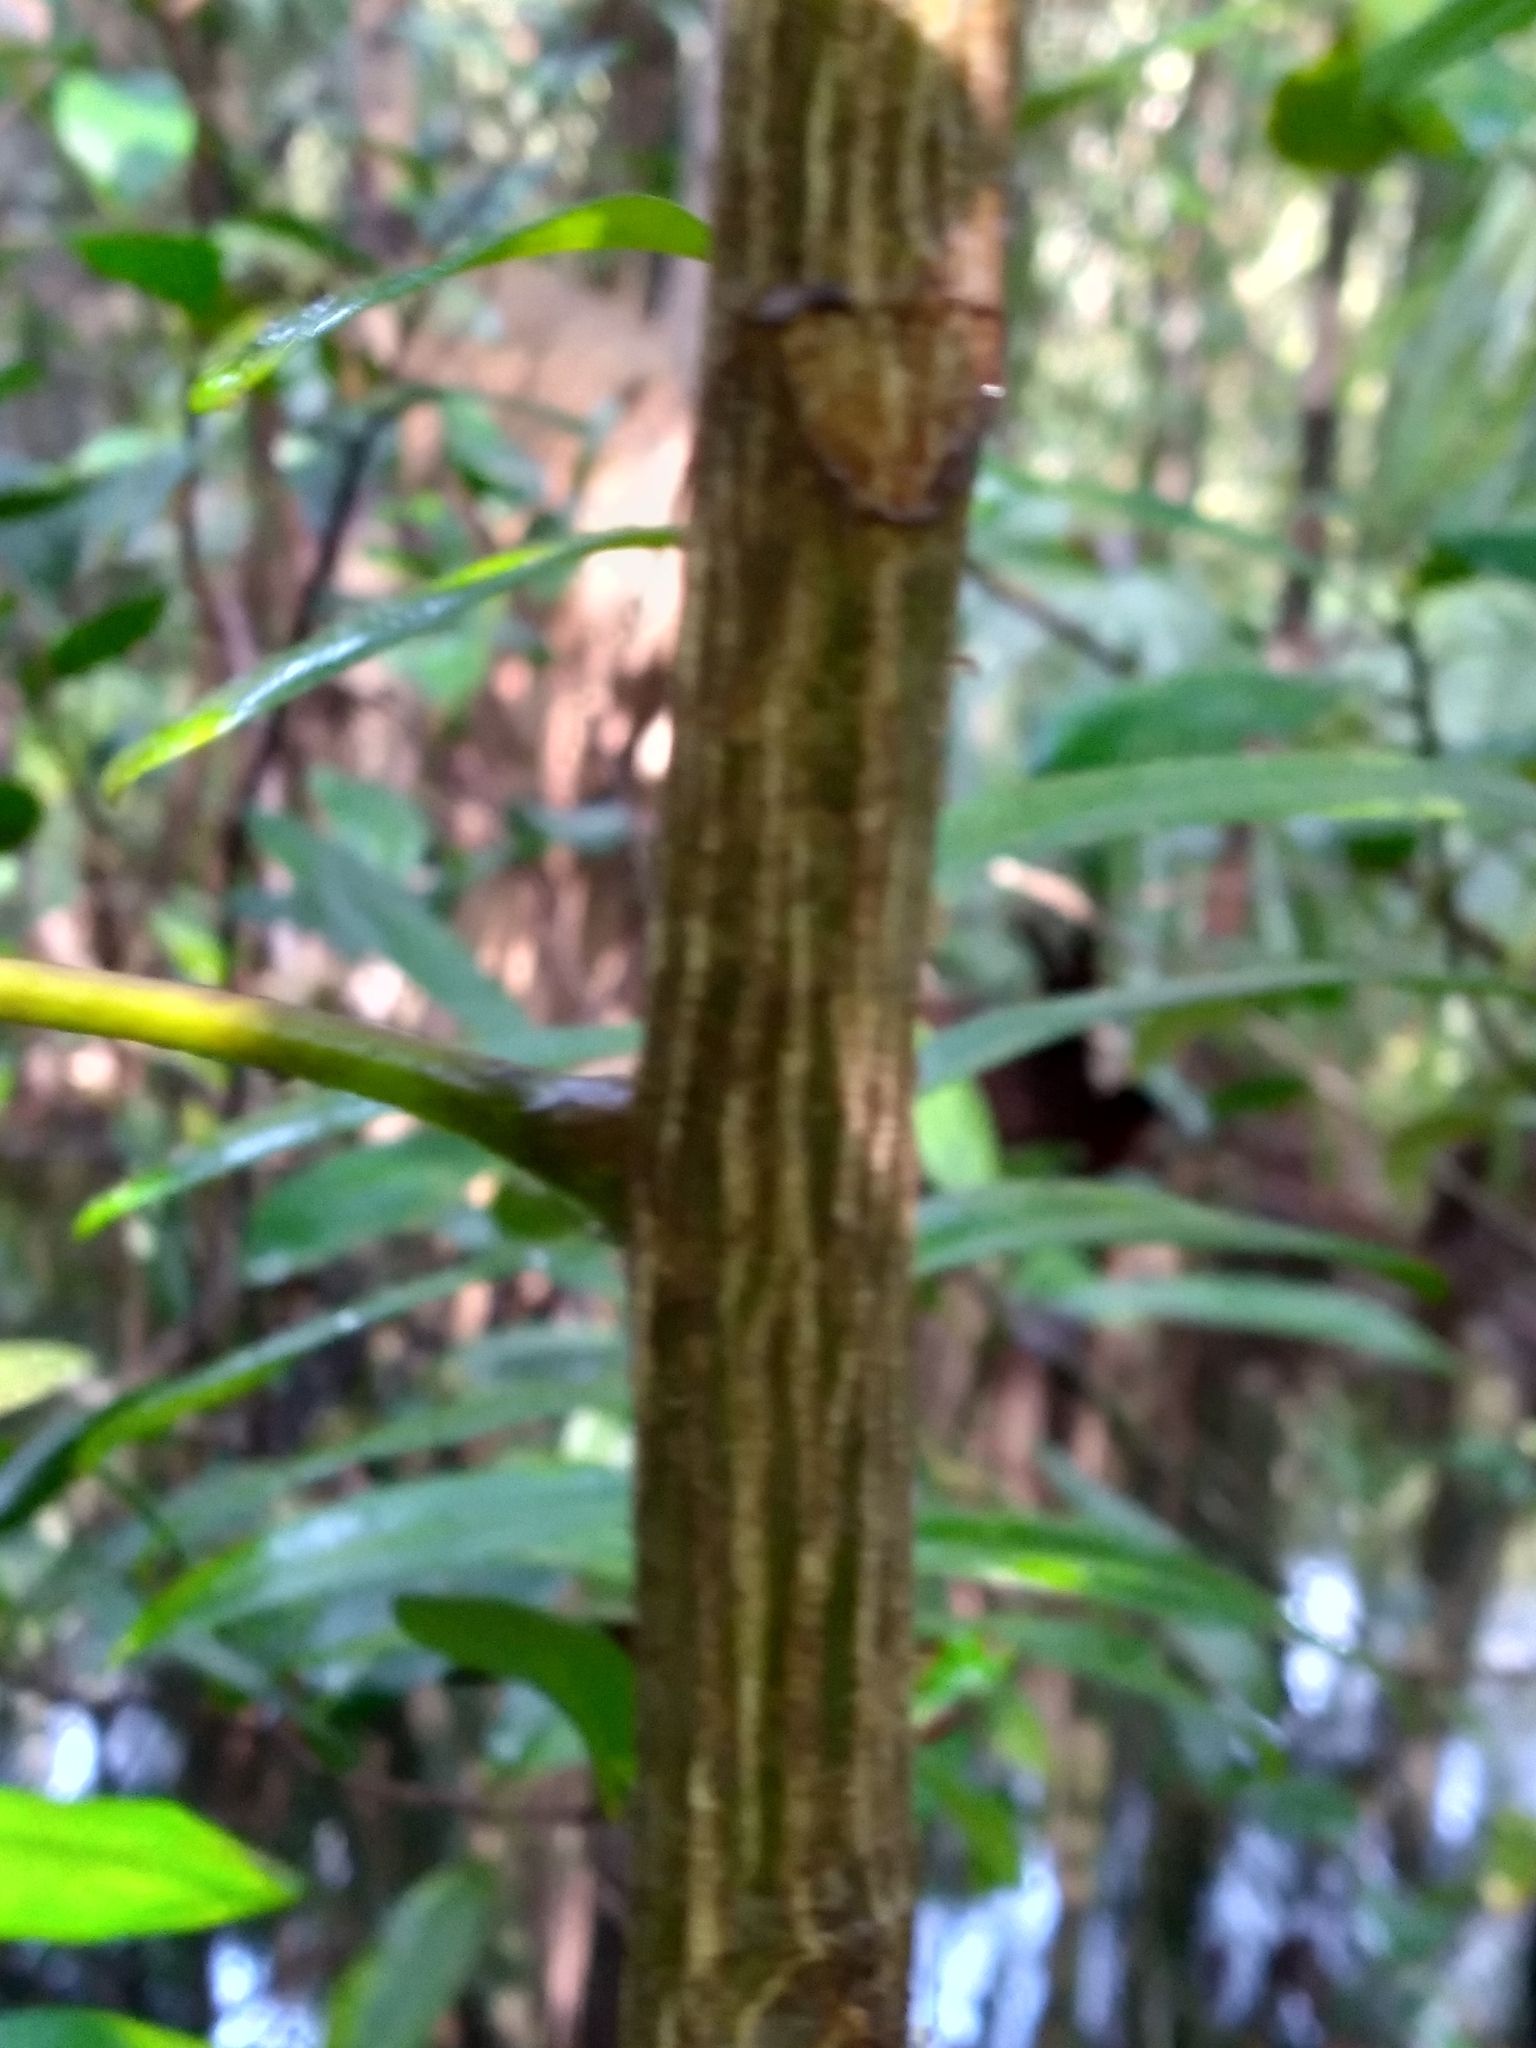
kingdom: Plantae
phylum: Tracheophyta
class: Magnoliopsida
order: Sapindales
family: Simaroubaceae
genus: Simarouba
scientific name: Simarouba glauca
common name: Dysentery-bark
